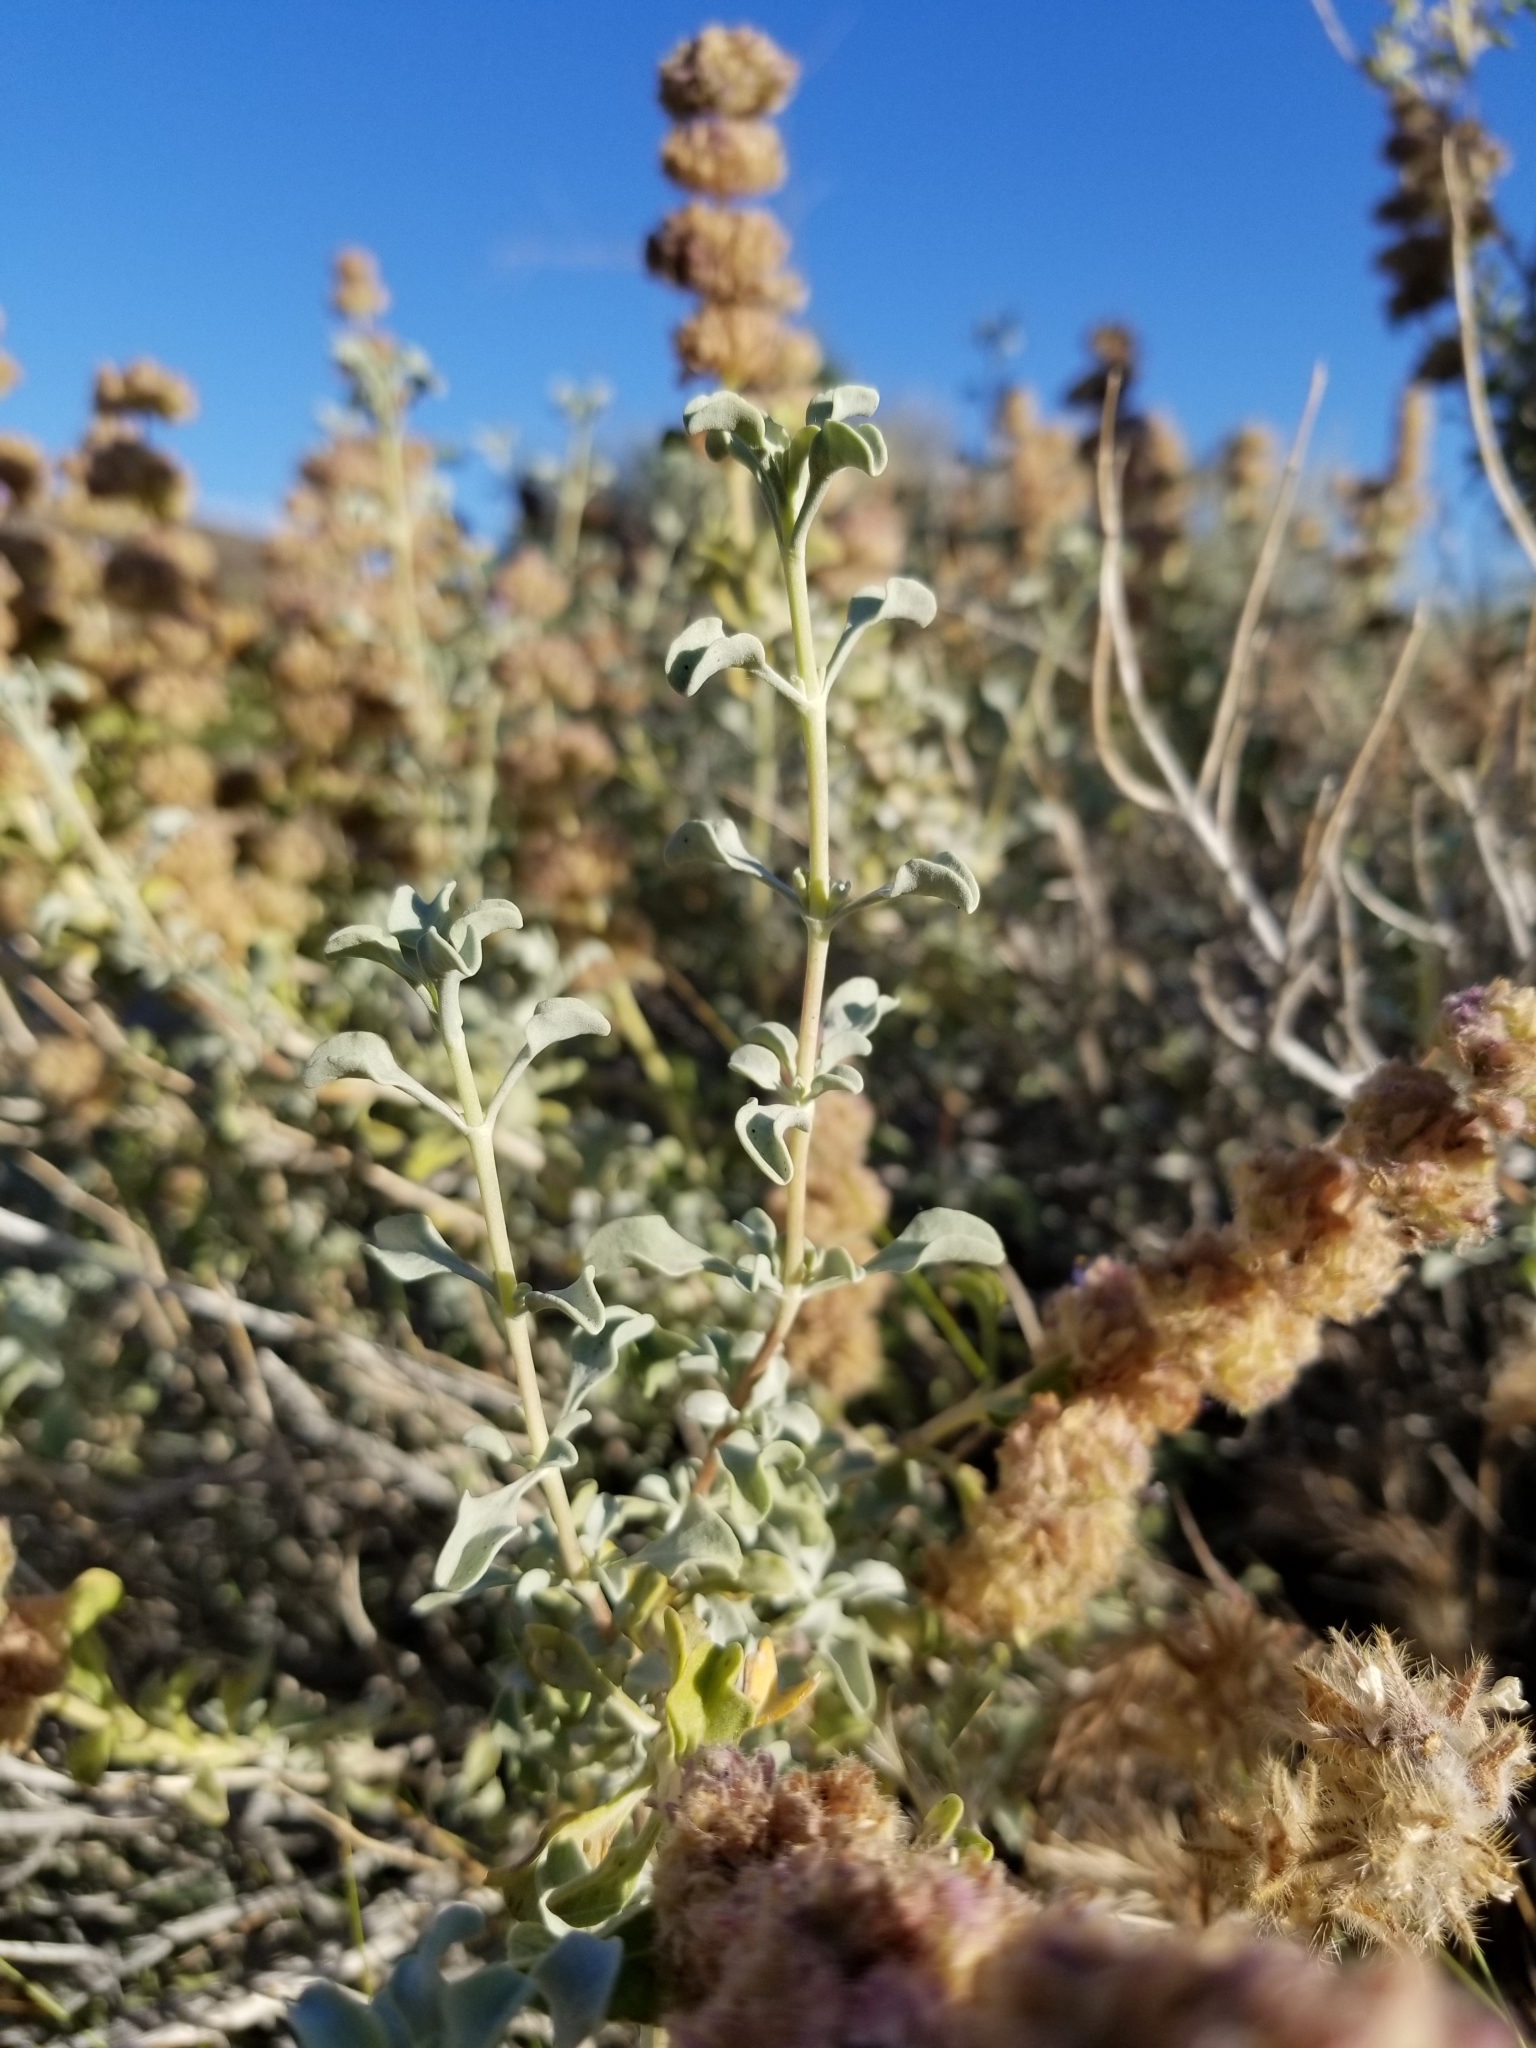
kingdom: Plantae
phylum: Tracheophyta
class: Magnoliopsida
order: Lamiales
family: Lamiaceae
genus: Salvia
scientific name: Salvia dorrii
